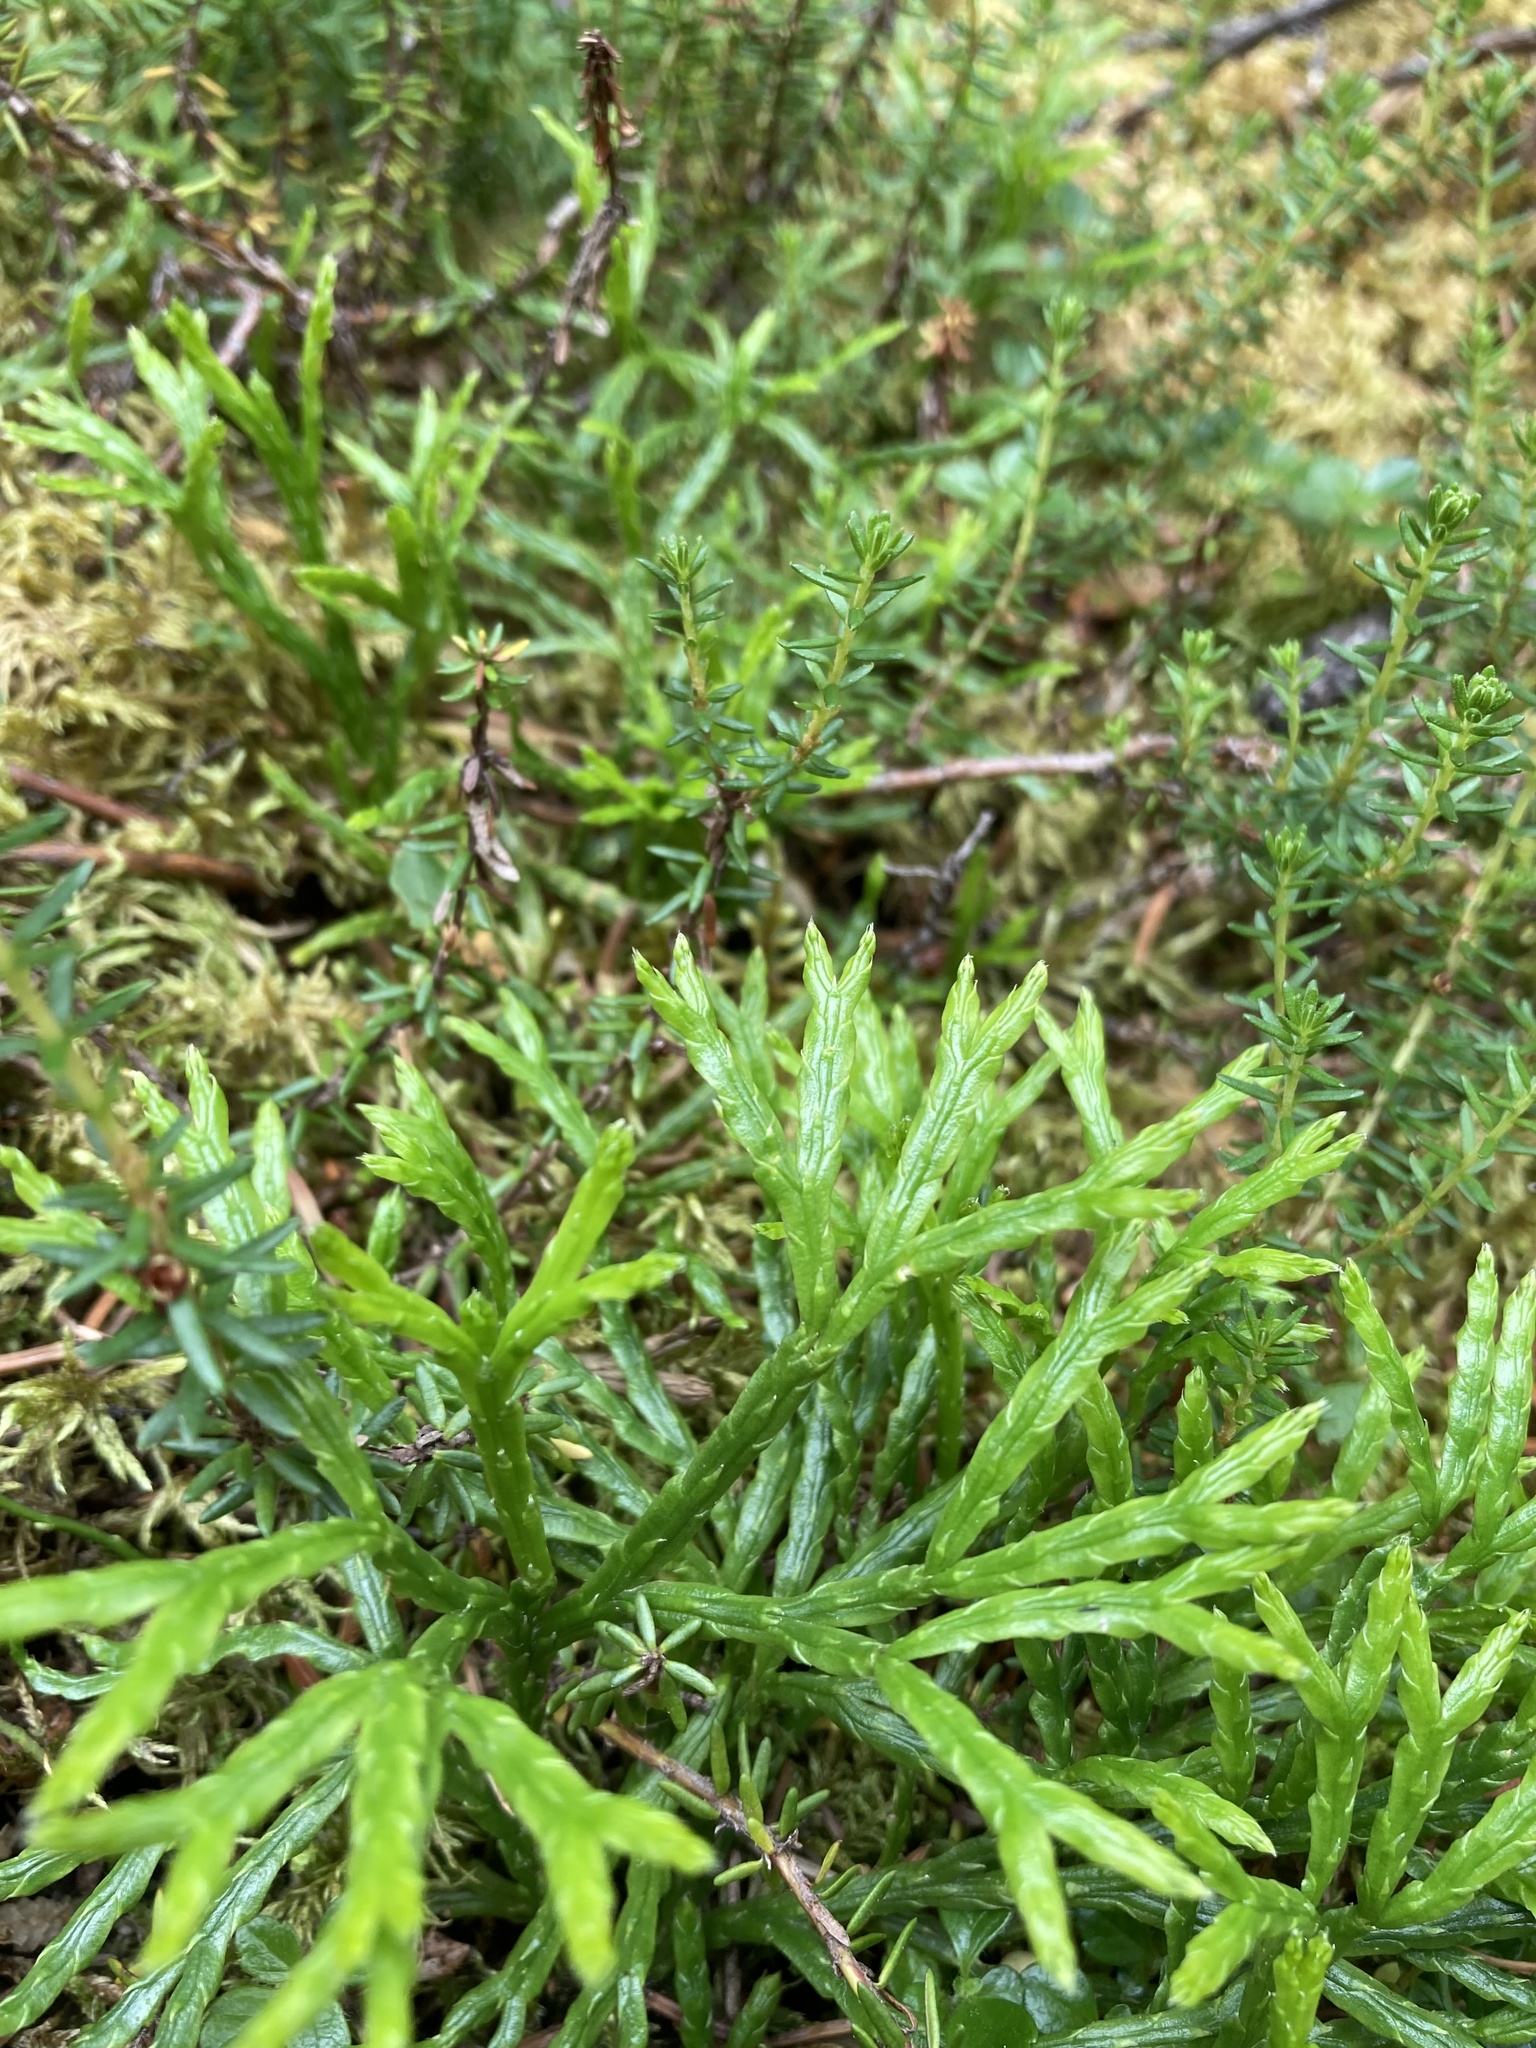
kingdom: Plantae
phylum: Tracheophyta
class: Lycopodiopsida
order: Lycopodiales
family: Lycopodiaceae
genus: Diphasiastrum
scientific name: Diphasiastrum complanatum
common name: Northern running-pine
